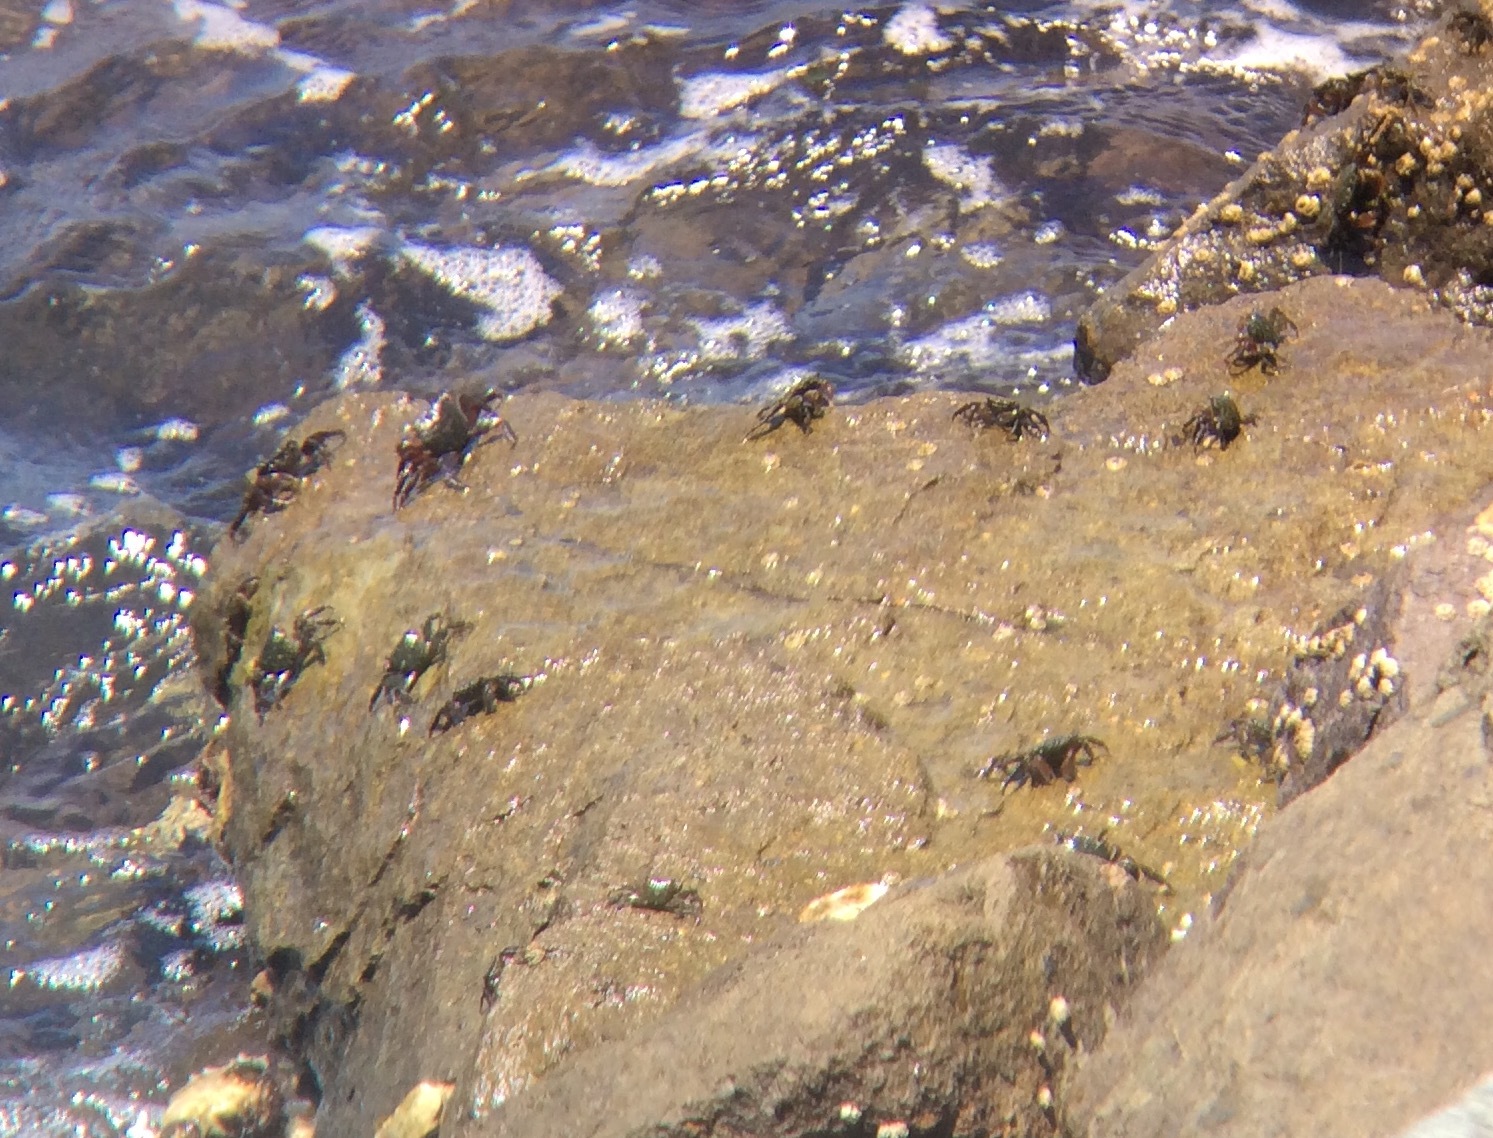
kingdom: Animalia
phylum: Arthropoda
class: Malacostraca
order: Decapoda
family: Grapsidae
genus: Pachygrapsus
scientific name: Pachygrapsus crassipes
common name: Striped shore crab
